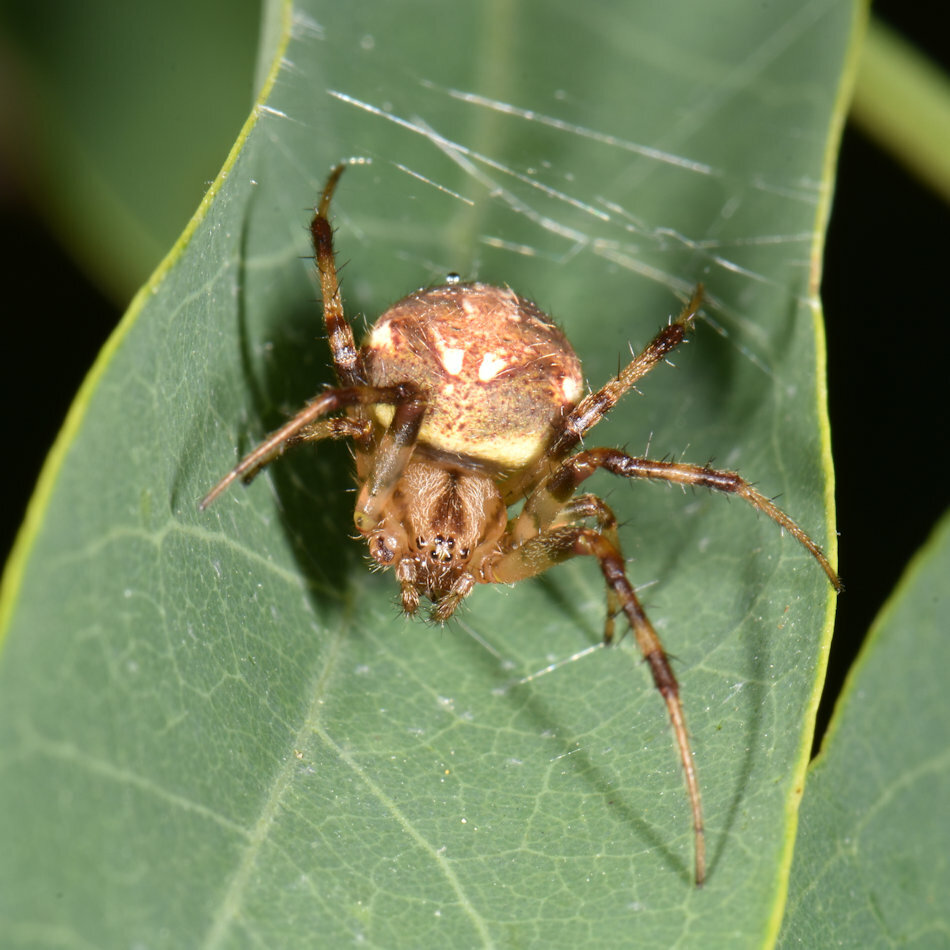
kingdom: Animalia
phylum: Arthropoda
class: Arachnida
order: Araneae
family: Araneidae
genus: Neoscona
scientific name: Neoscona arabesca
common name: Orb weavers
